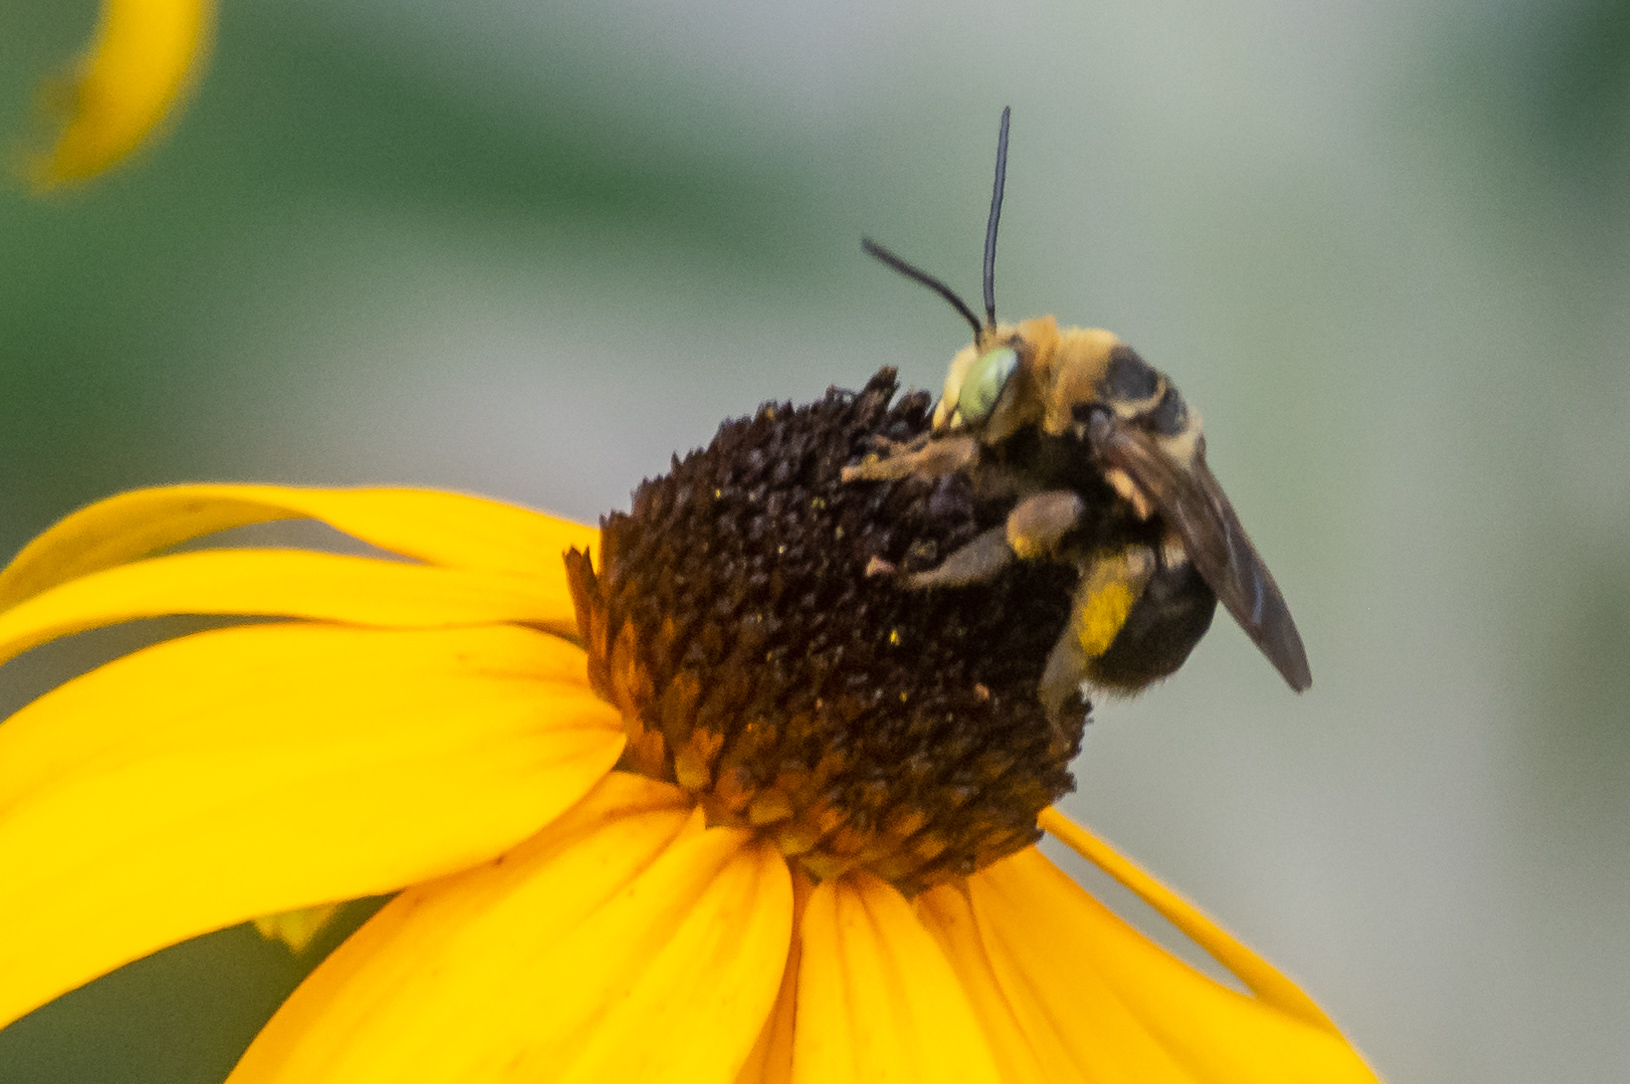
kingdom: Animalia
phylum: Arthropoda
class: Insecta
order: Hymenoptera
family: Apidae
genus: Svastra
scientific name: Svastra obliqua
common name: Oblique longhorn
